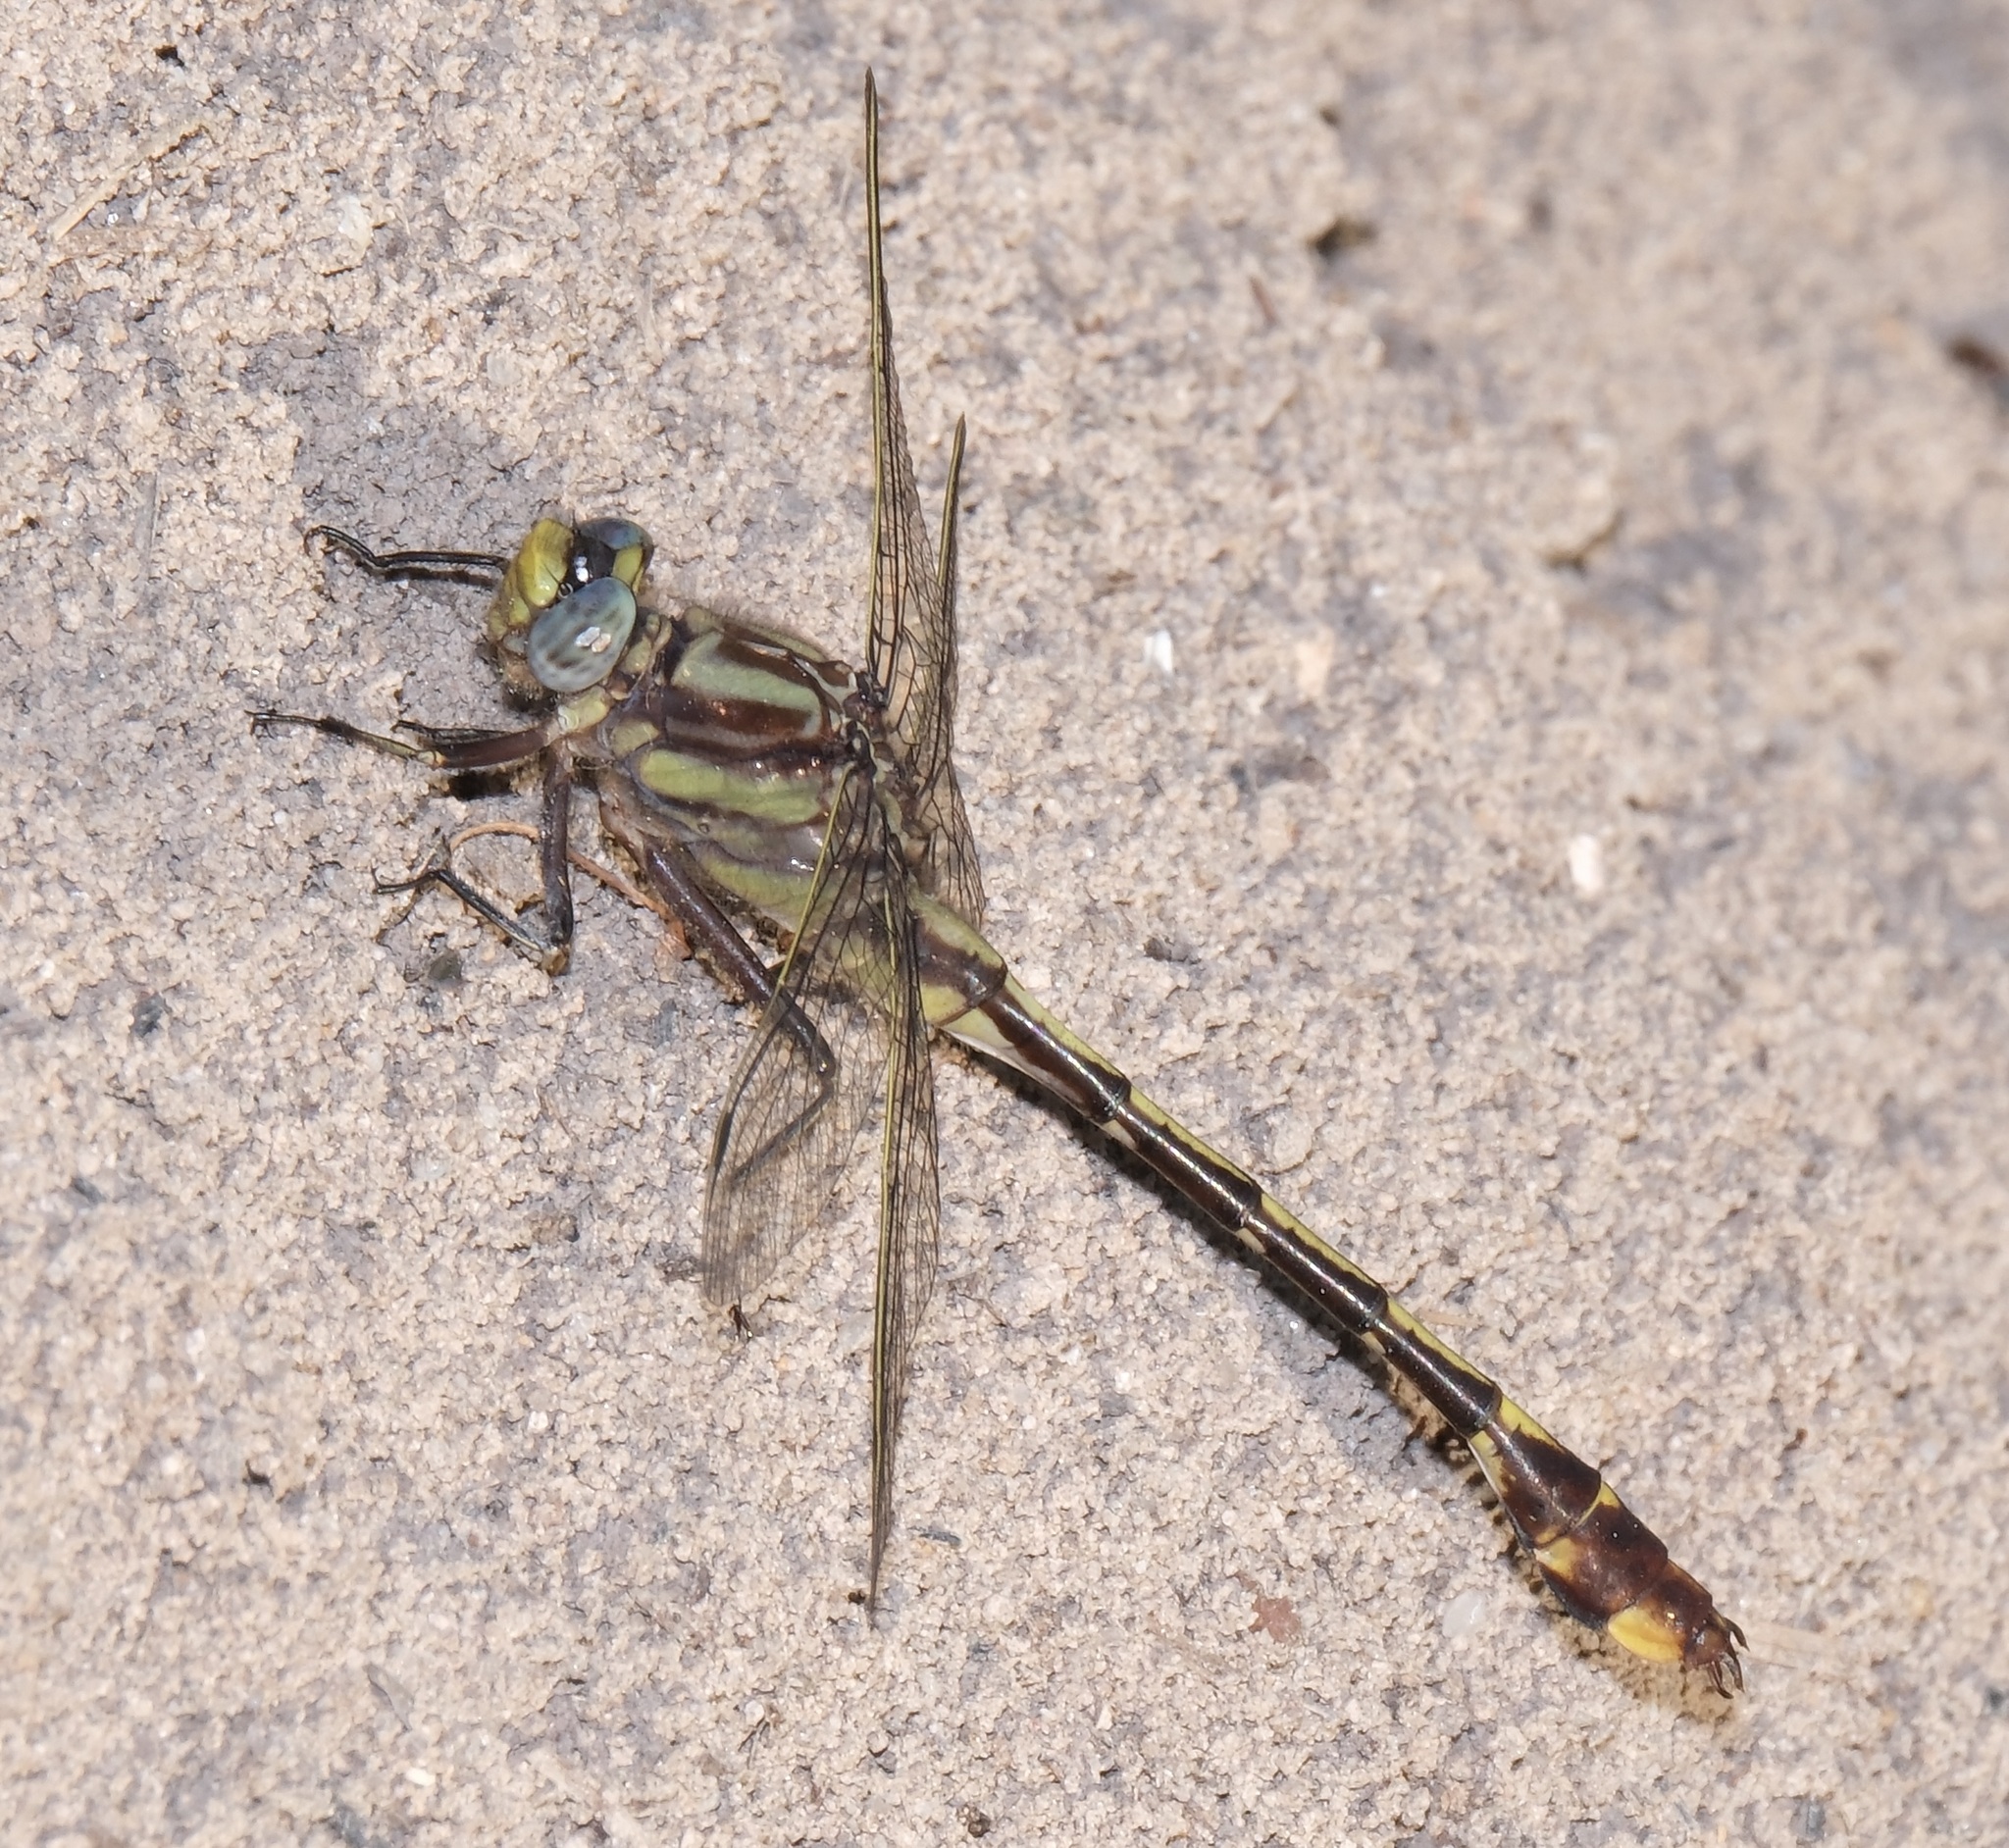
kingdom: Animalia
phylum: Arthropoda
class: Insecta
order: Odonata
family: Gomphidae
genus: Gomphurus
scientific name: Gomphurus hybridus
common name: Cocoa clubtail
